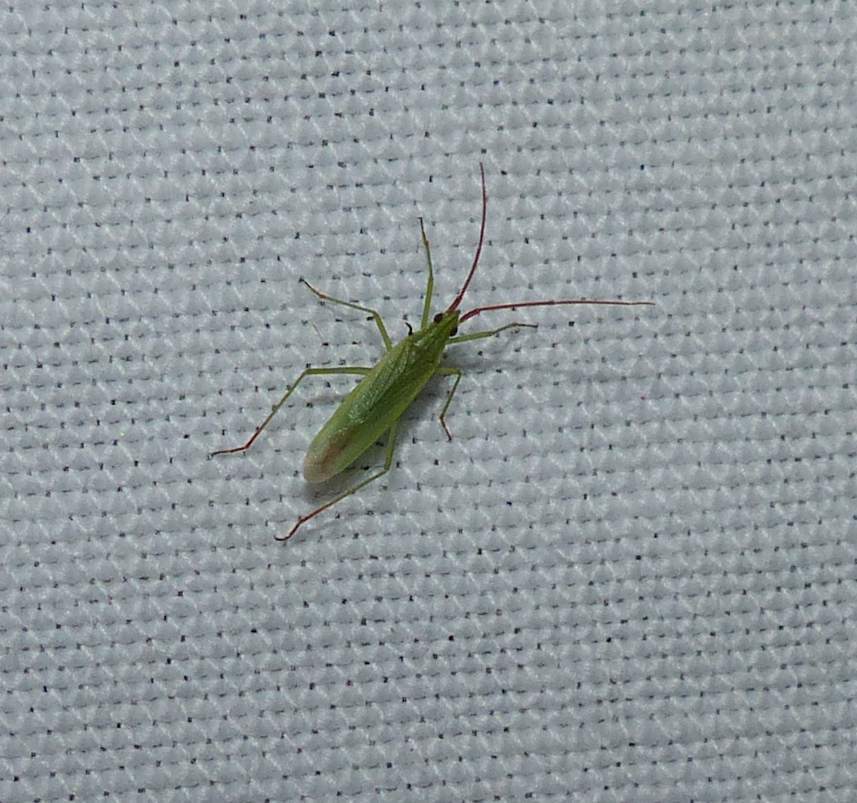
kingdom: Animalia
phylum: Arthropoda
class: Insecta
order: Hemiptera
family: Miridae
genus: Trigonotylus
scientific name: Trigonotylus caelestialium
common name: Rice leaf bug
